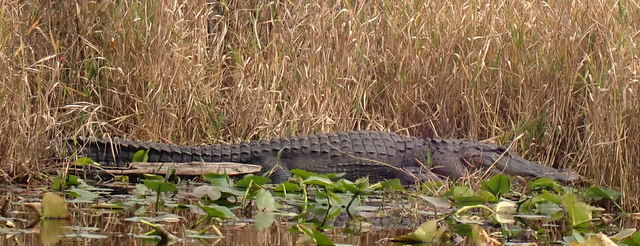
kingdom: Animalia
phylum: Chordata
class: Crocodylia
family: Alligatoridae
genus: Alligator
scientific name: Alligator mississippiensis
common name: American alligator
